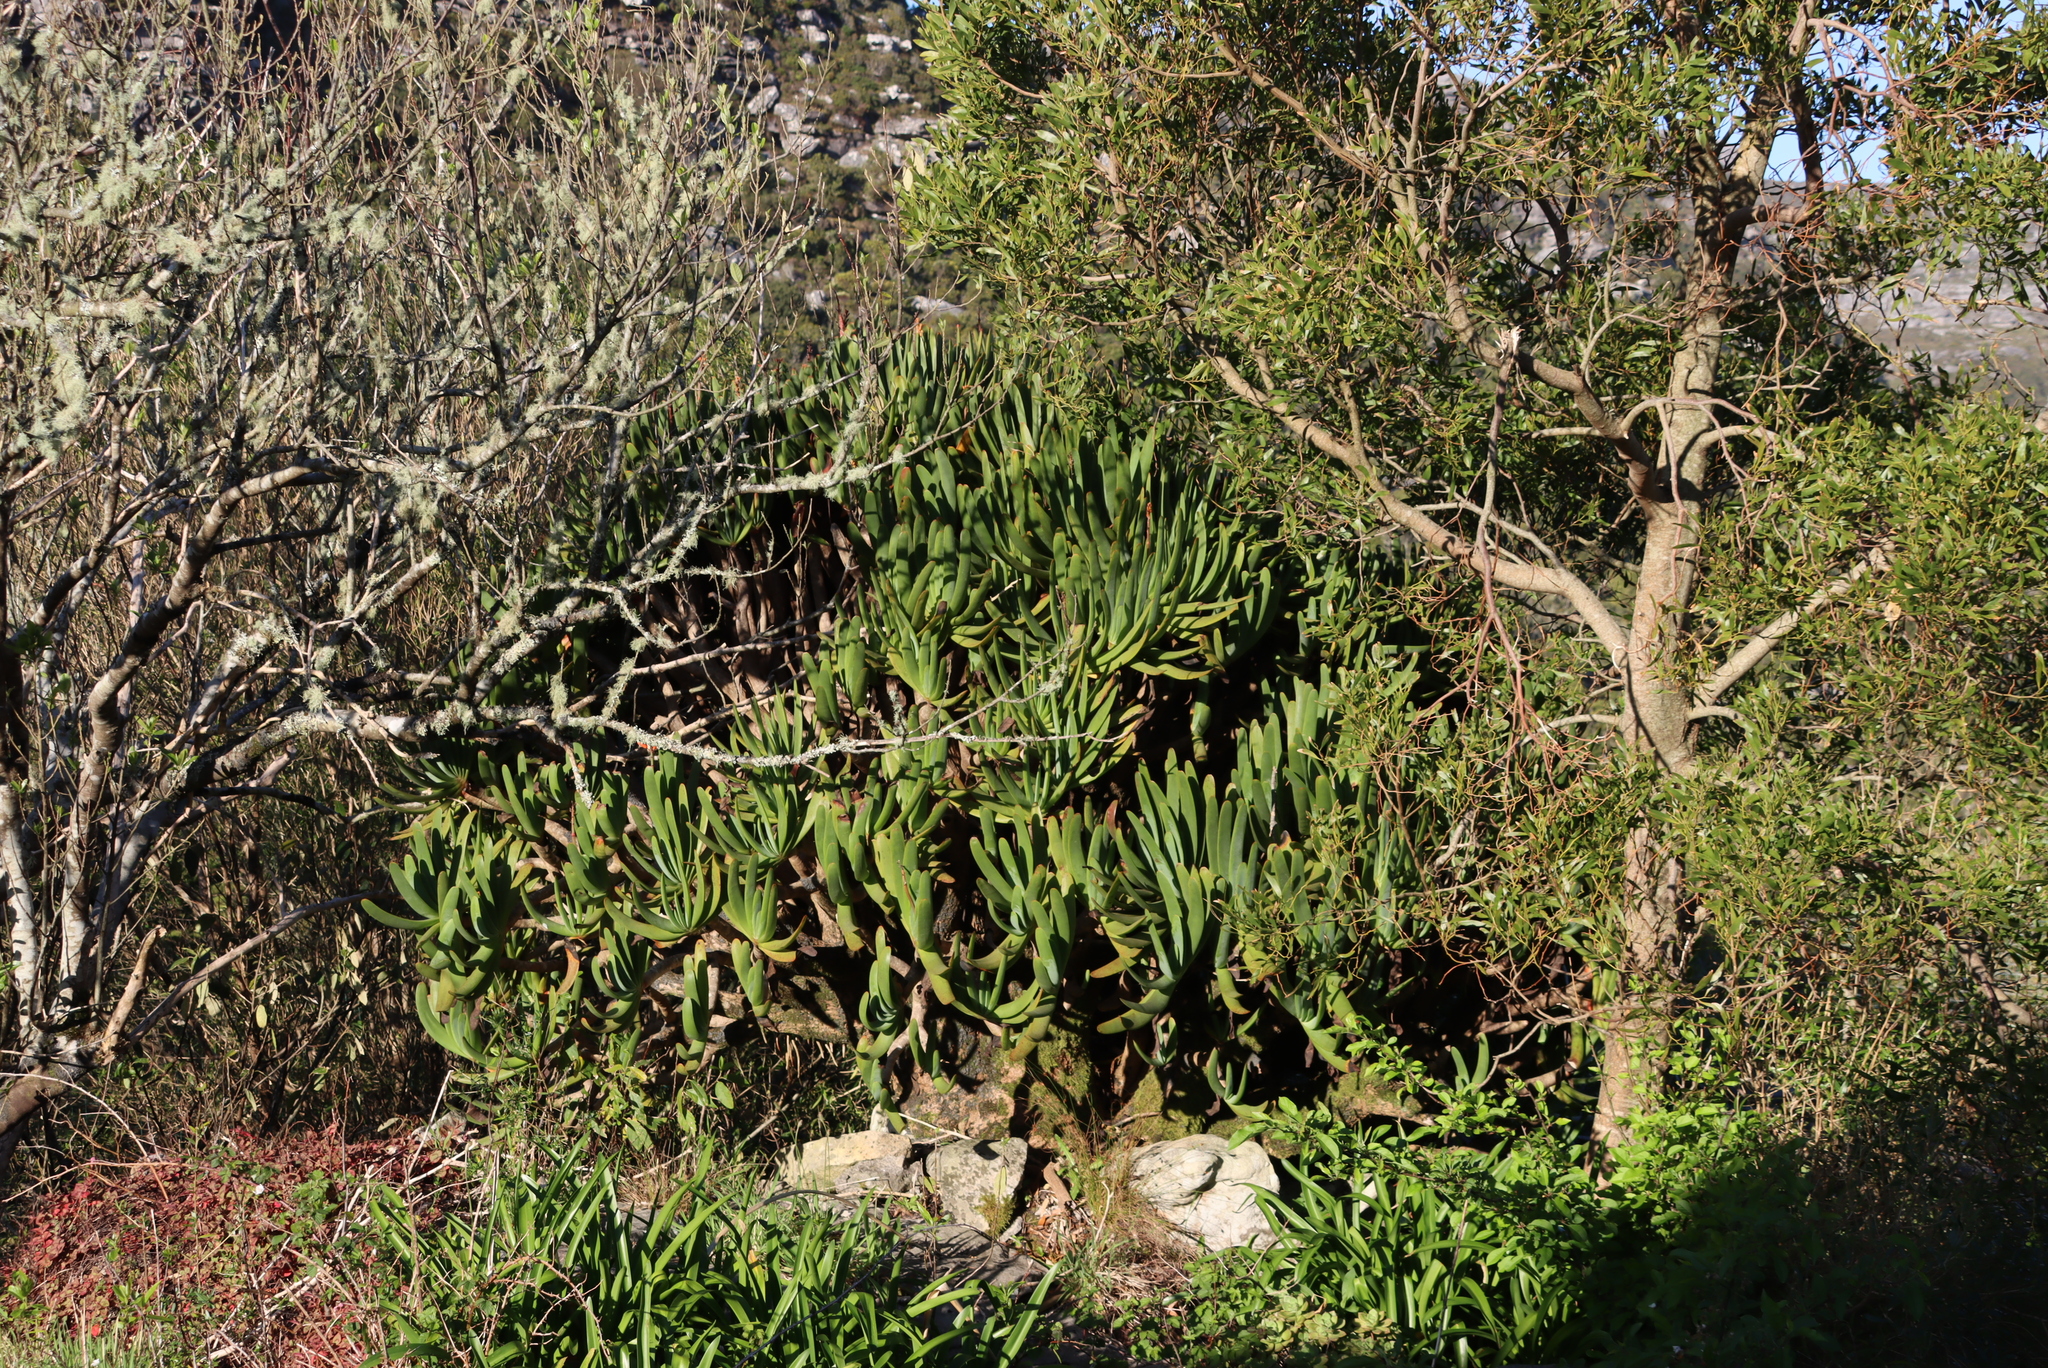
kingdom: Plantae
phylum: Tracheophyta
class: Liliopsida
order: Asparagales
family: Asphodelaceae
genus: Kumara
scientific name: Kumara plicatilis
